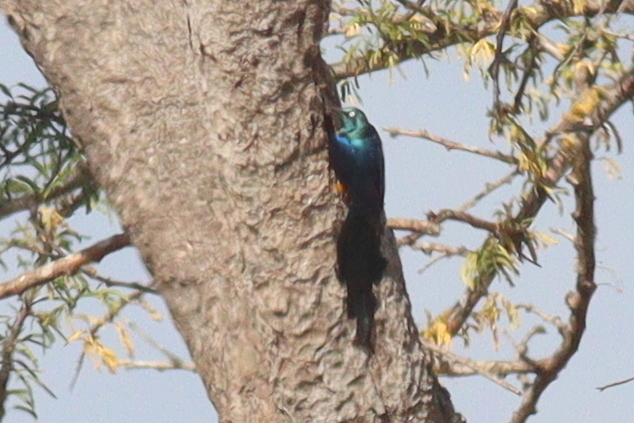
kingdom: Animalia
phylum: Chordata
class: Aves
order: Passeriformes
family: Sturnidae
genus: Lamprotornis
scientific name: Lamprotornis regius
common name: Golden-breasted starling
